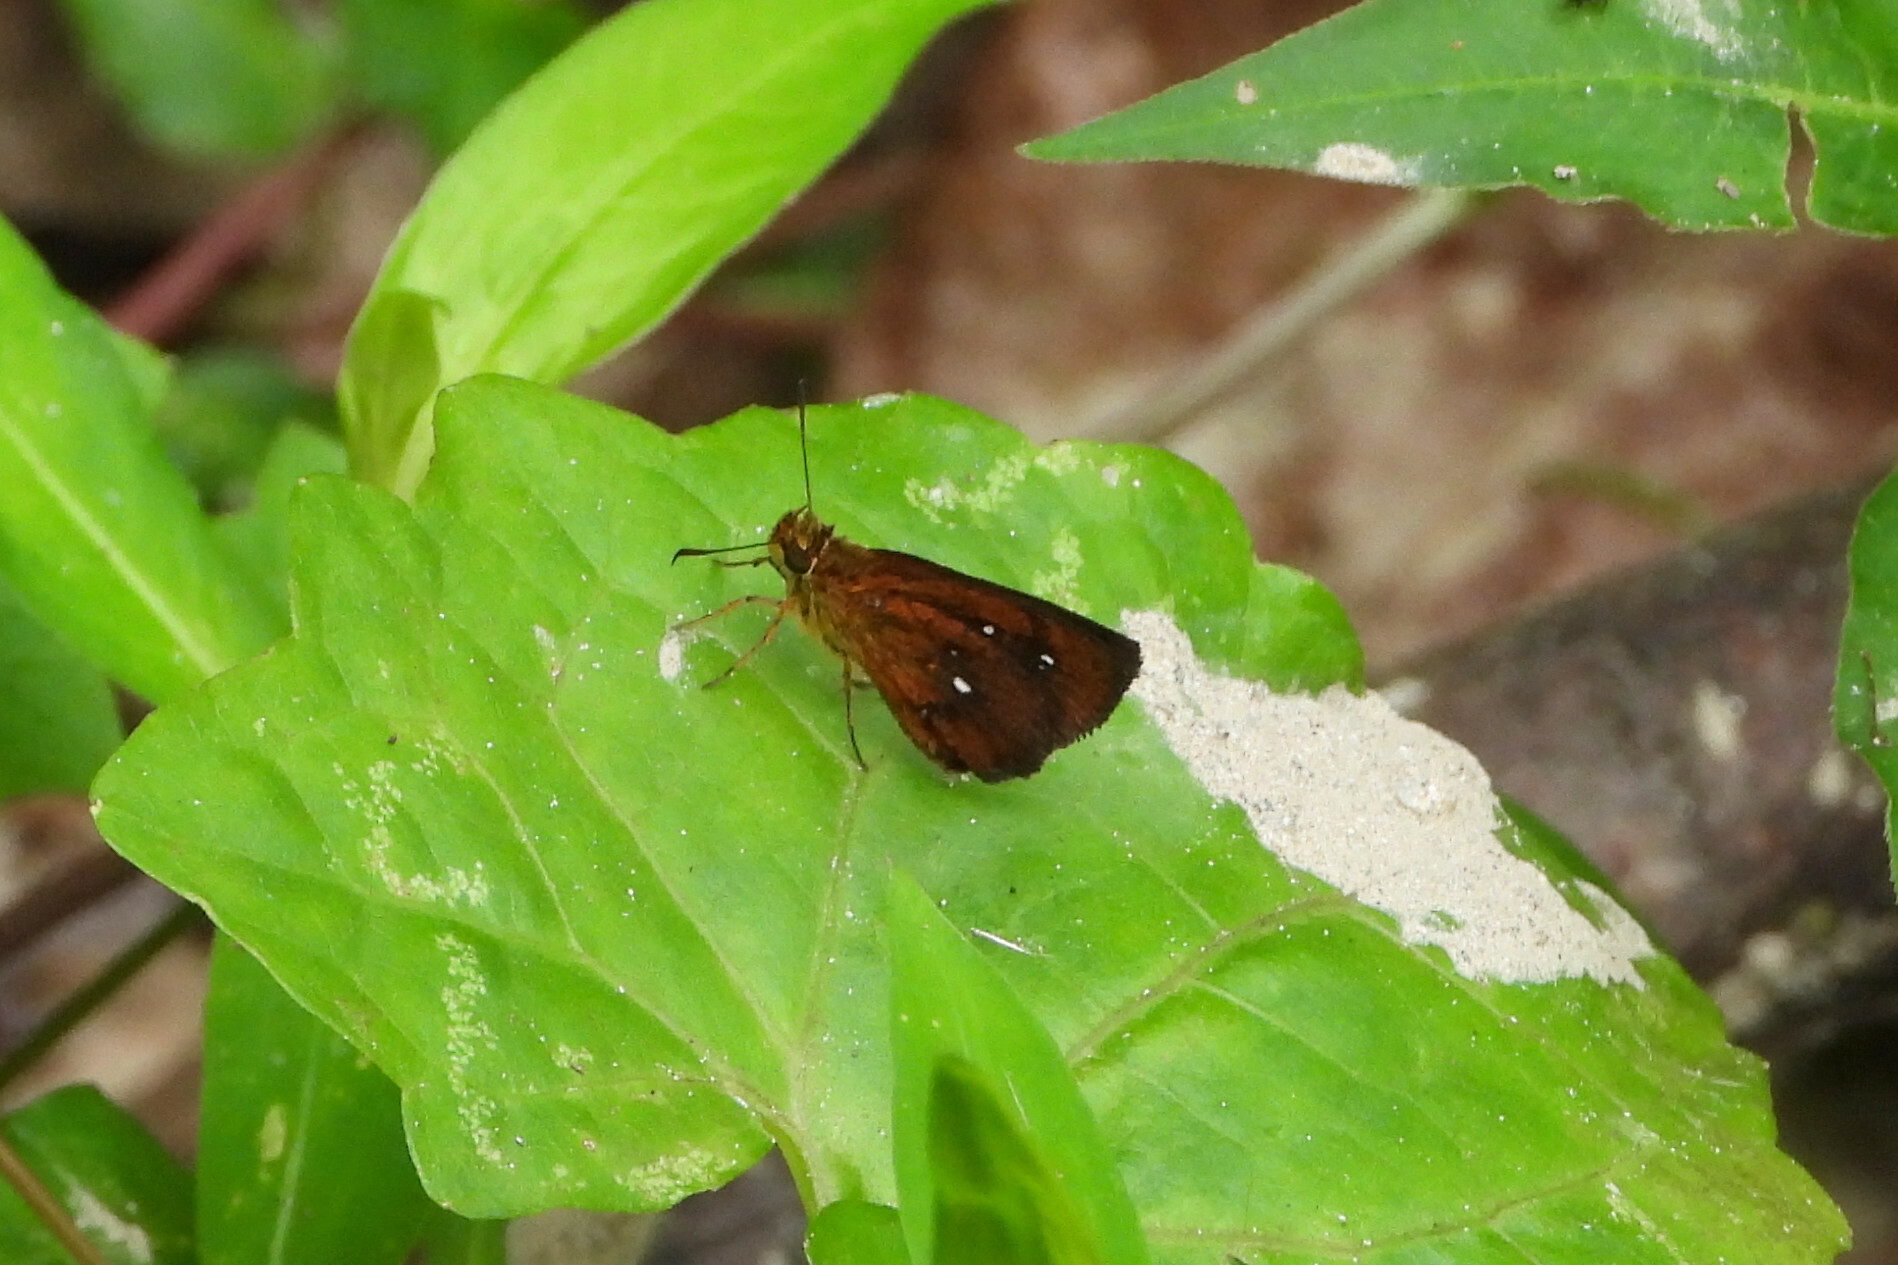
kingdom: Animalia
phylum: Arthropoda
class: Insecta
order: Lepidoptera
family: Hesperiidae
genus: Iambrix
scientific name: Iambrix salsala
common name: Chestnut bob
